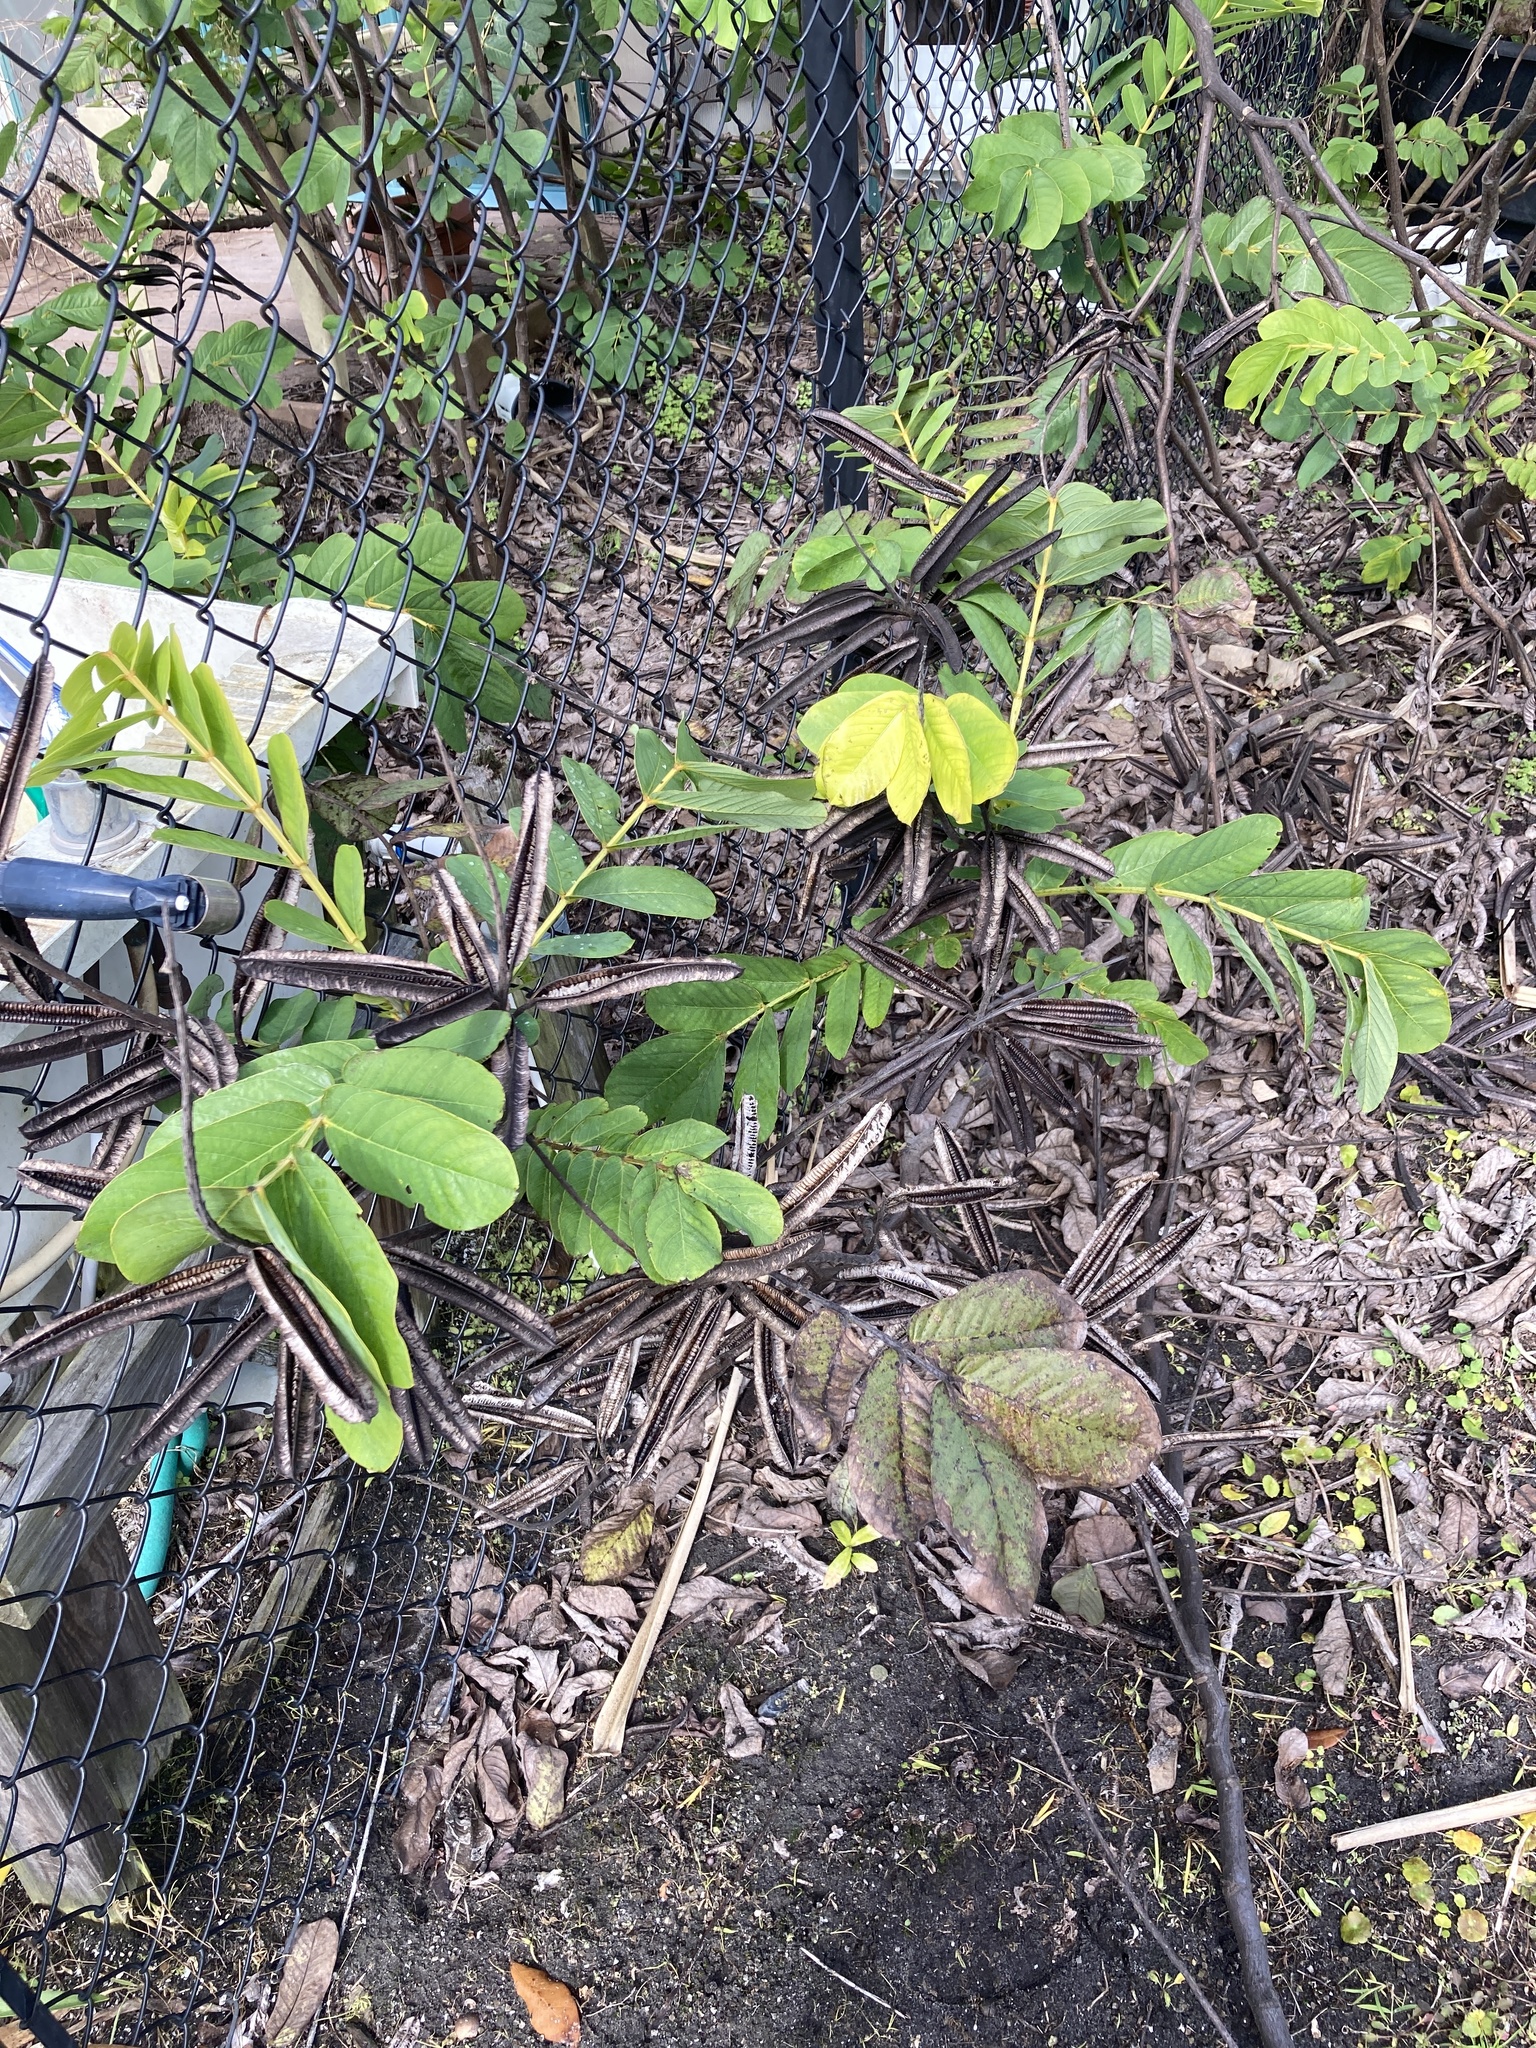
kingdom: Plantae
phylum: Tracheophyta
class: Magnoliopsida
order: Fabales
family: Fabaceae
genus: Senna
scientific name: Senna alata
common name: Emperor's candlesticks
